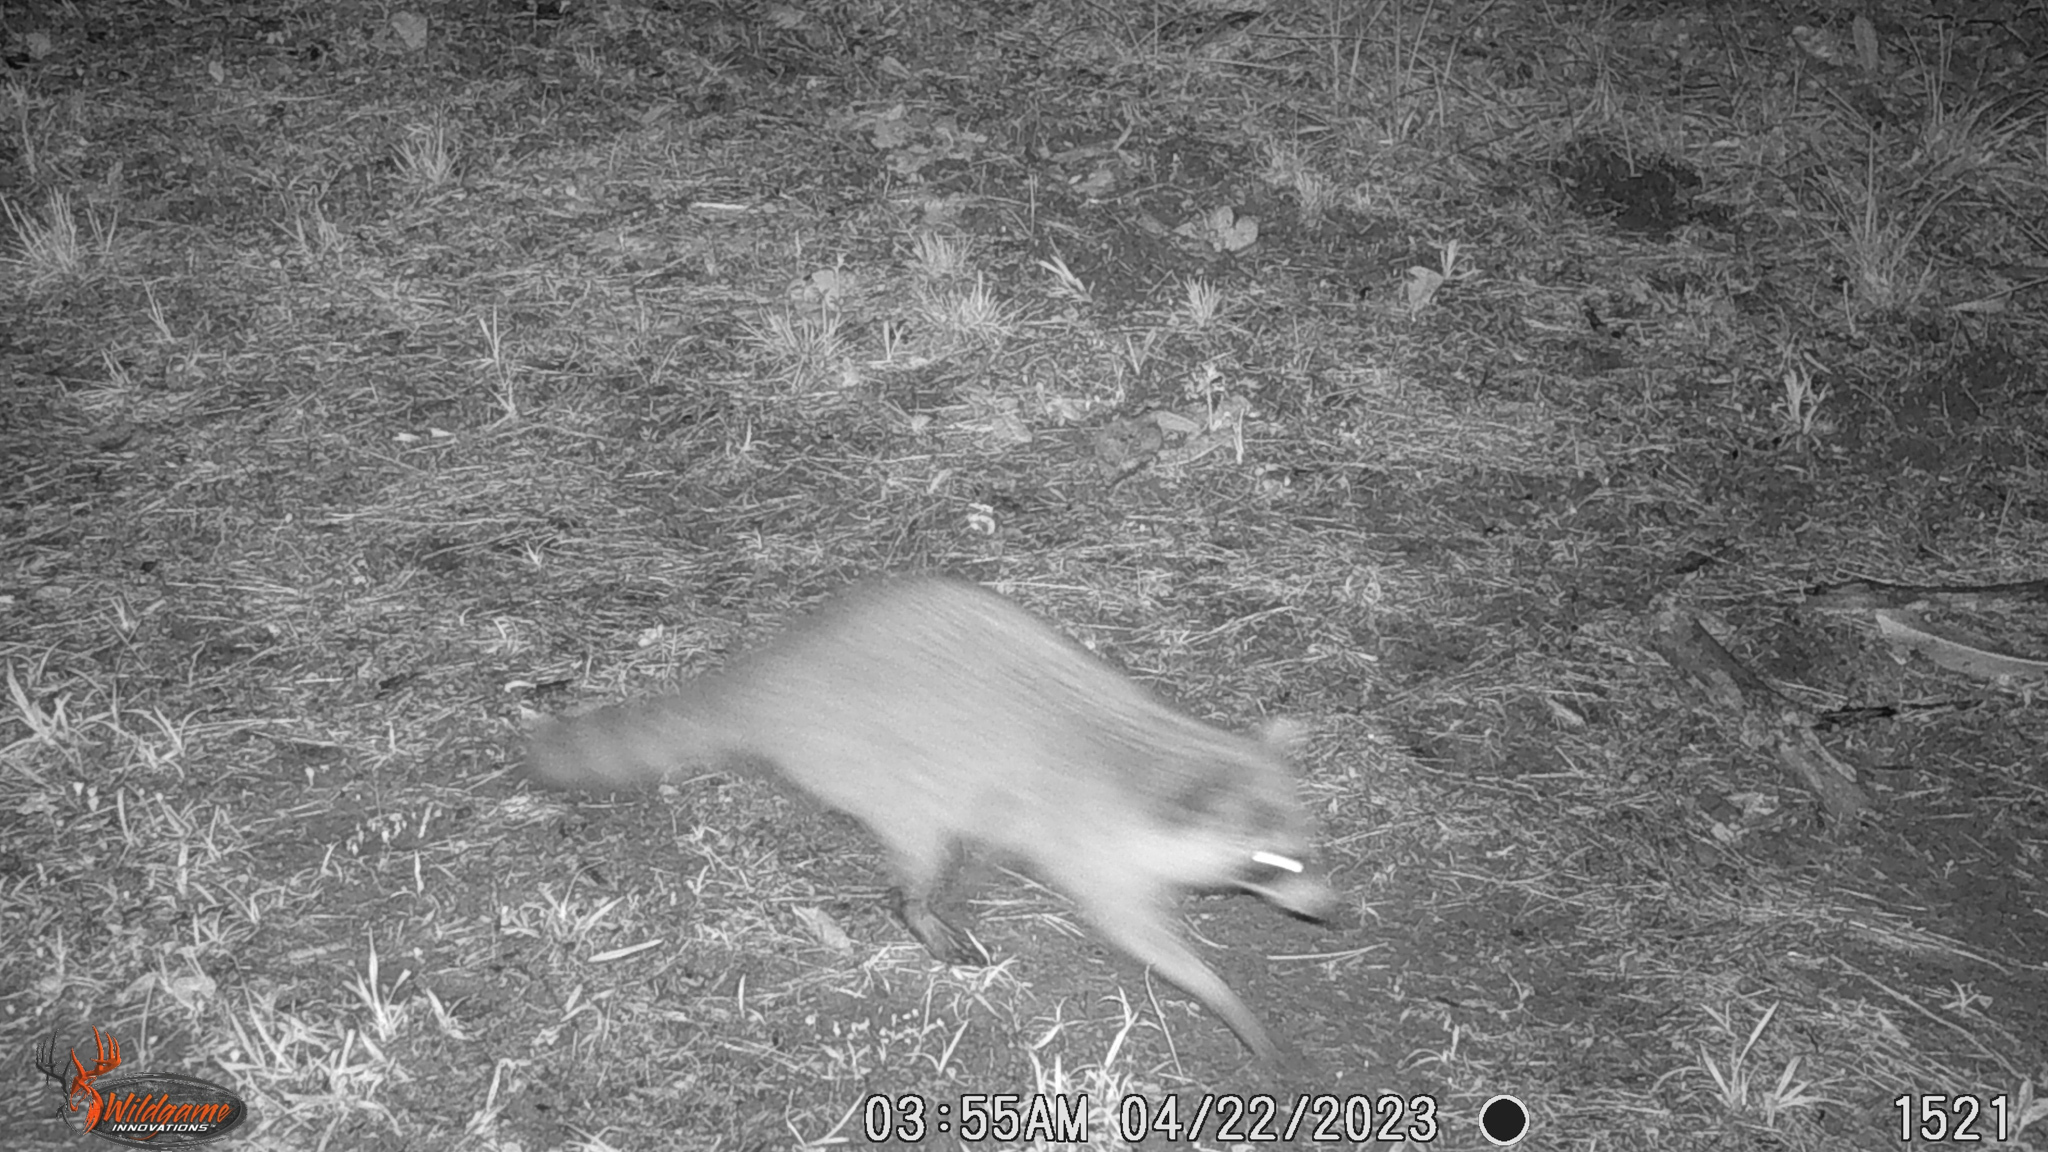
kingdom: Animalia
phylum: Chordata
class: Mammalia
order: Carnivora
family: Procyonidae
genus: Procyon
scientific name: Procyon lotor
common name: Raccoon
